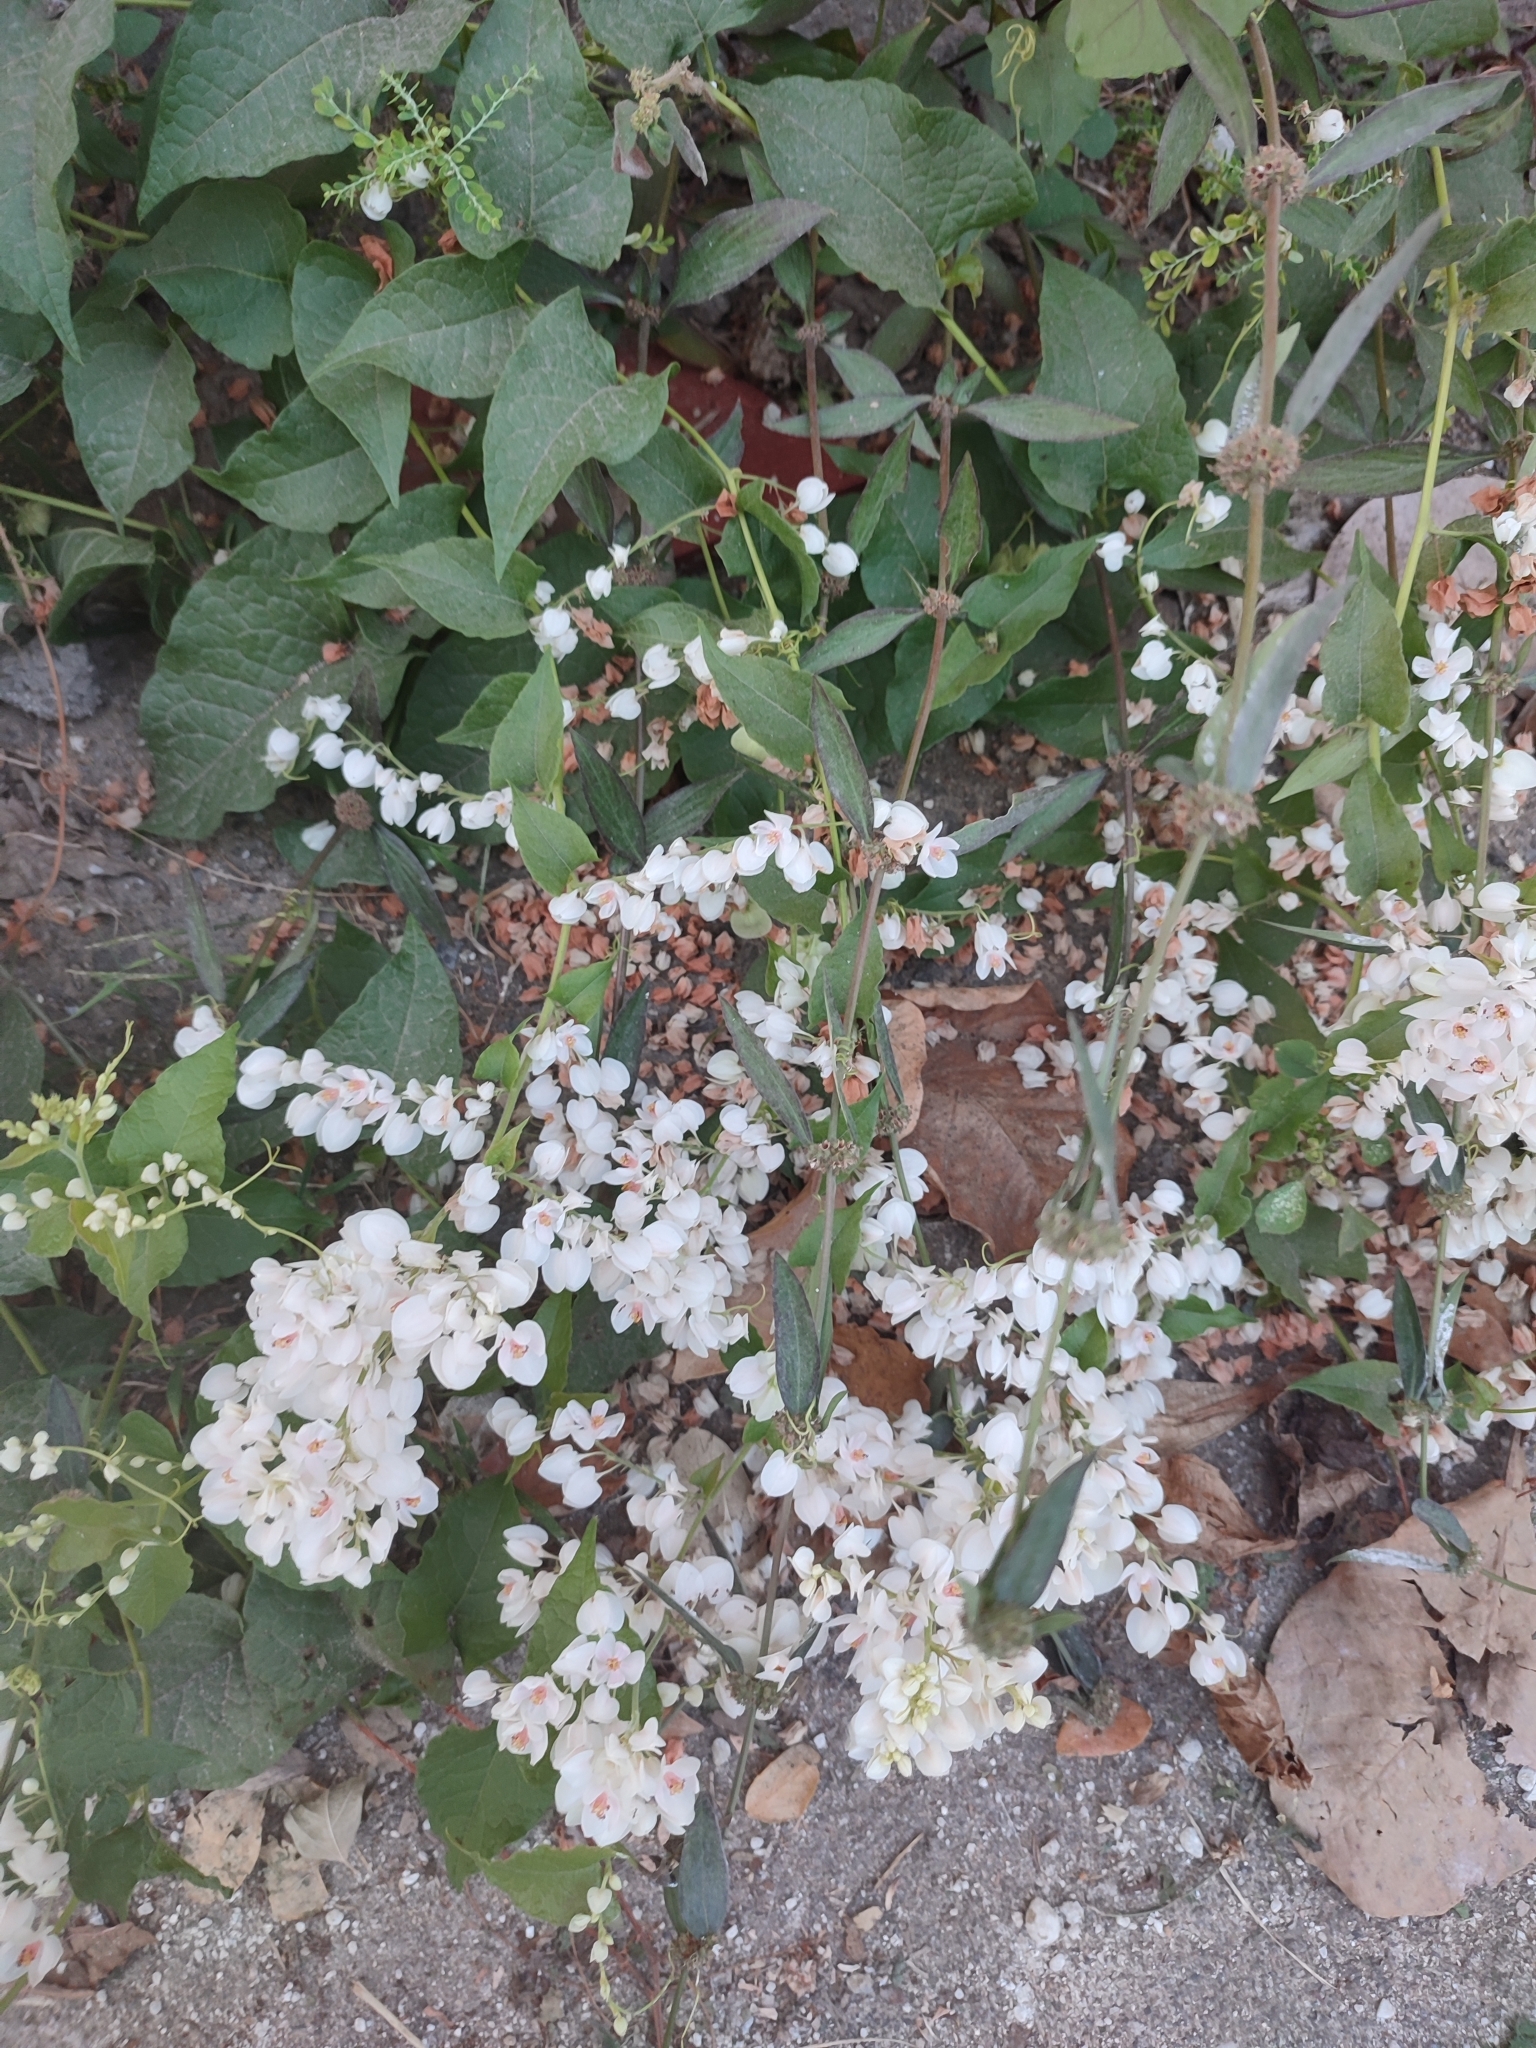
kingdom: Plantae
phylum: Tracheophyta
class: Magnoliopsida
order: Caryophyllales
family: Polygonaceae
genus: Antigonon
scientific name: Antigonon leptopus
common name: Coral vine
